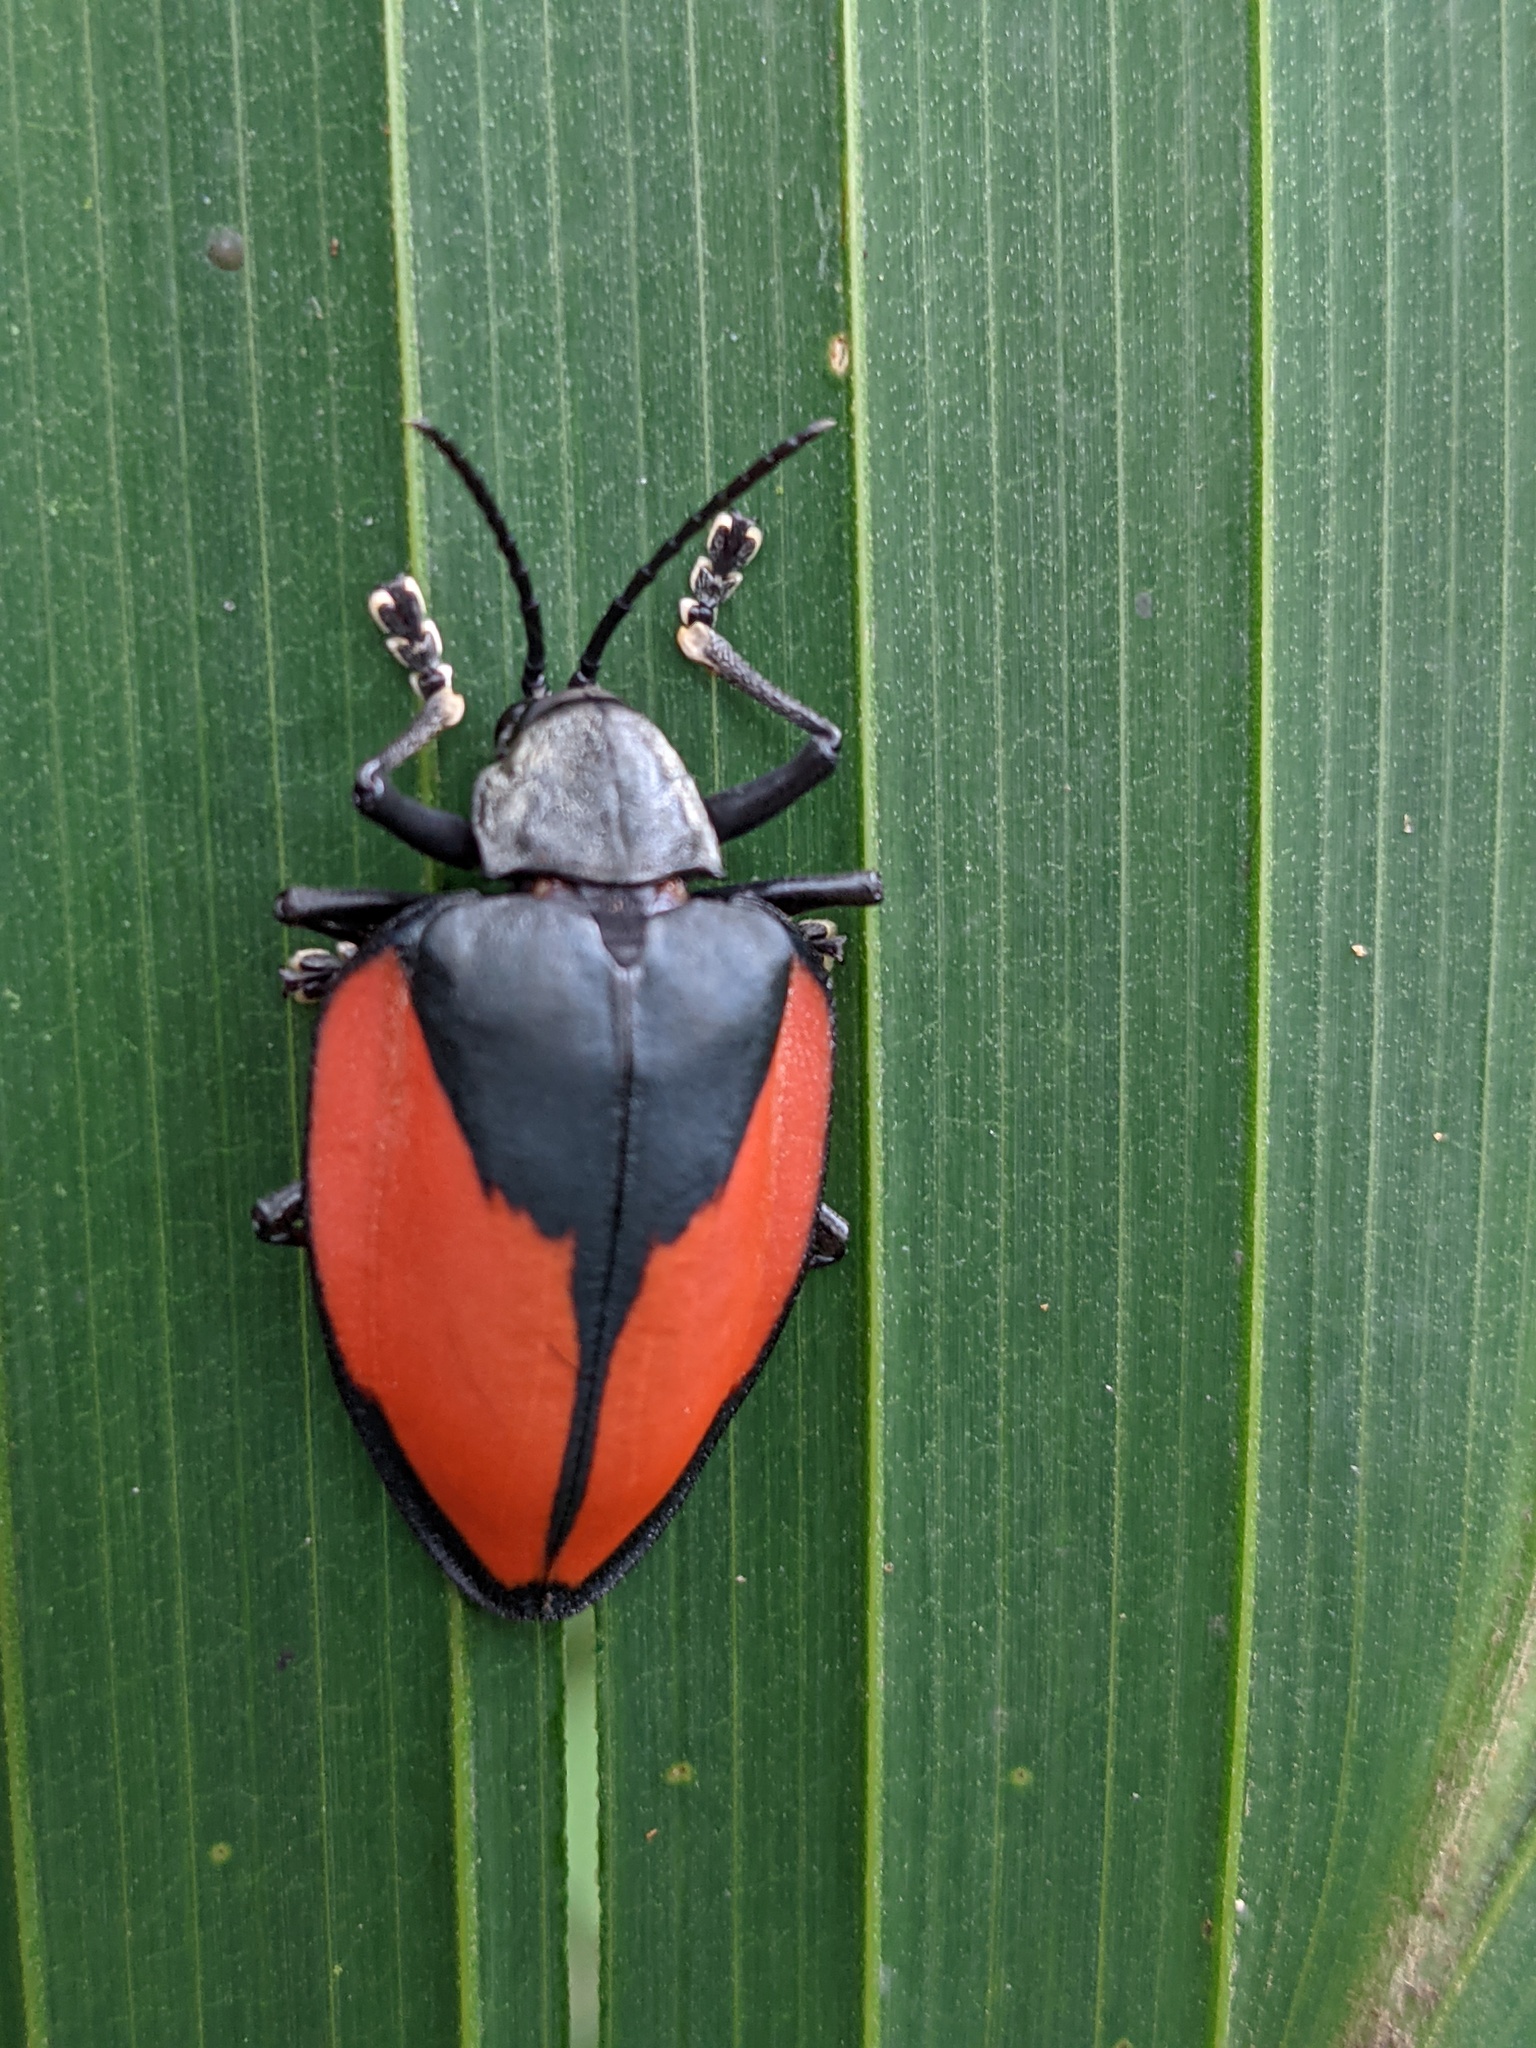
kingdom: Animalia
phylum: Arthropoda
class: Insecta
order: Coleoptera
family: Chrysomelidae
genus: Pseudocalaspidea
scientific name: Pseudocalaspidea cassidea
